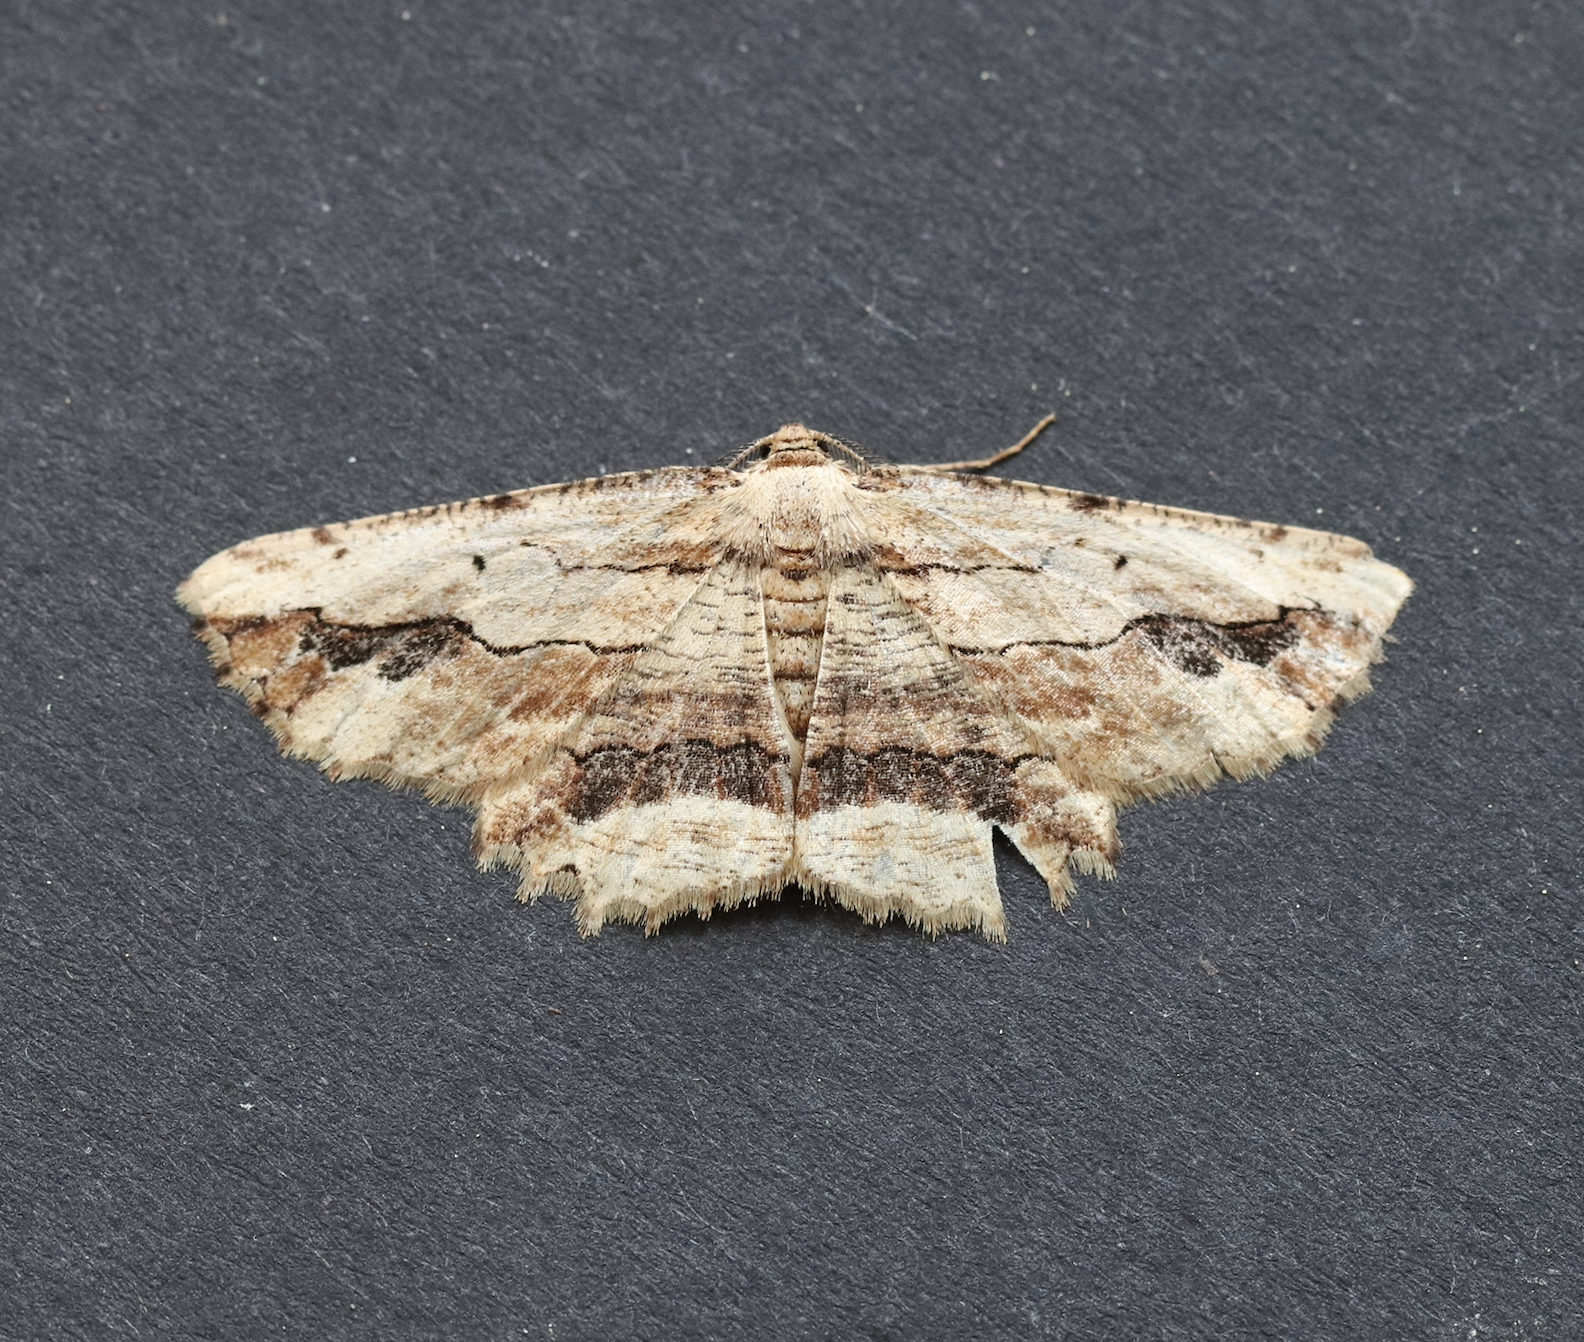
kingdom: Animalia
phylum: Arthropoda
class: Insecta
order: Lepidoptera
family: Geometridae
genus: Menophra
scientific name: Menophra abruptaria
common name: Waved umber
